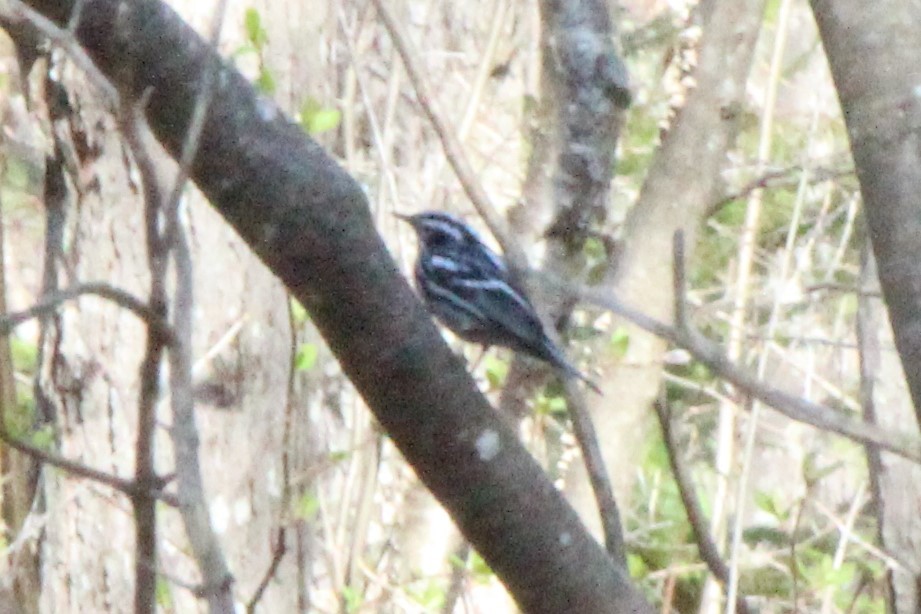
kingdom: Animalia
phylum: Chordata
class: Aves
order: Passeriformes
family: Parulidae
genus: Mniotilta
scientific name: Mniotilta varia
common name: Black-and-white warbler
